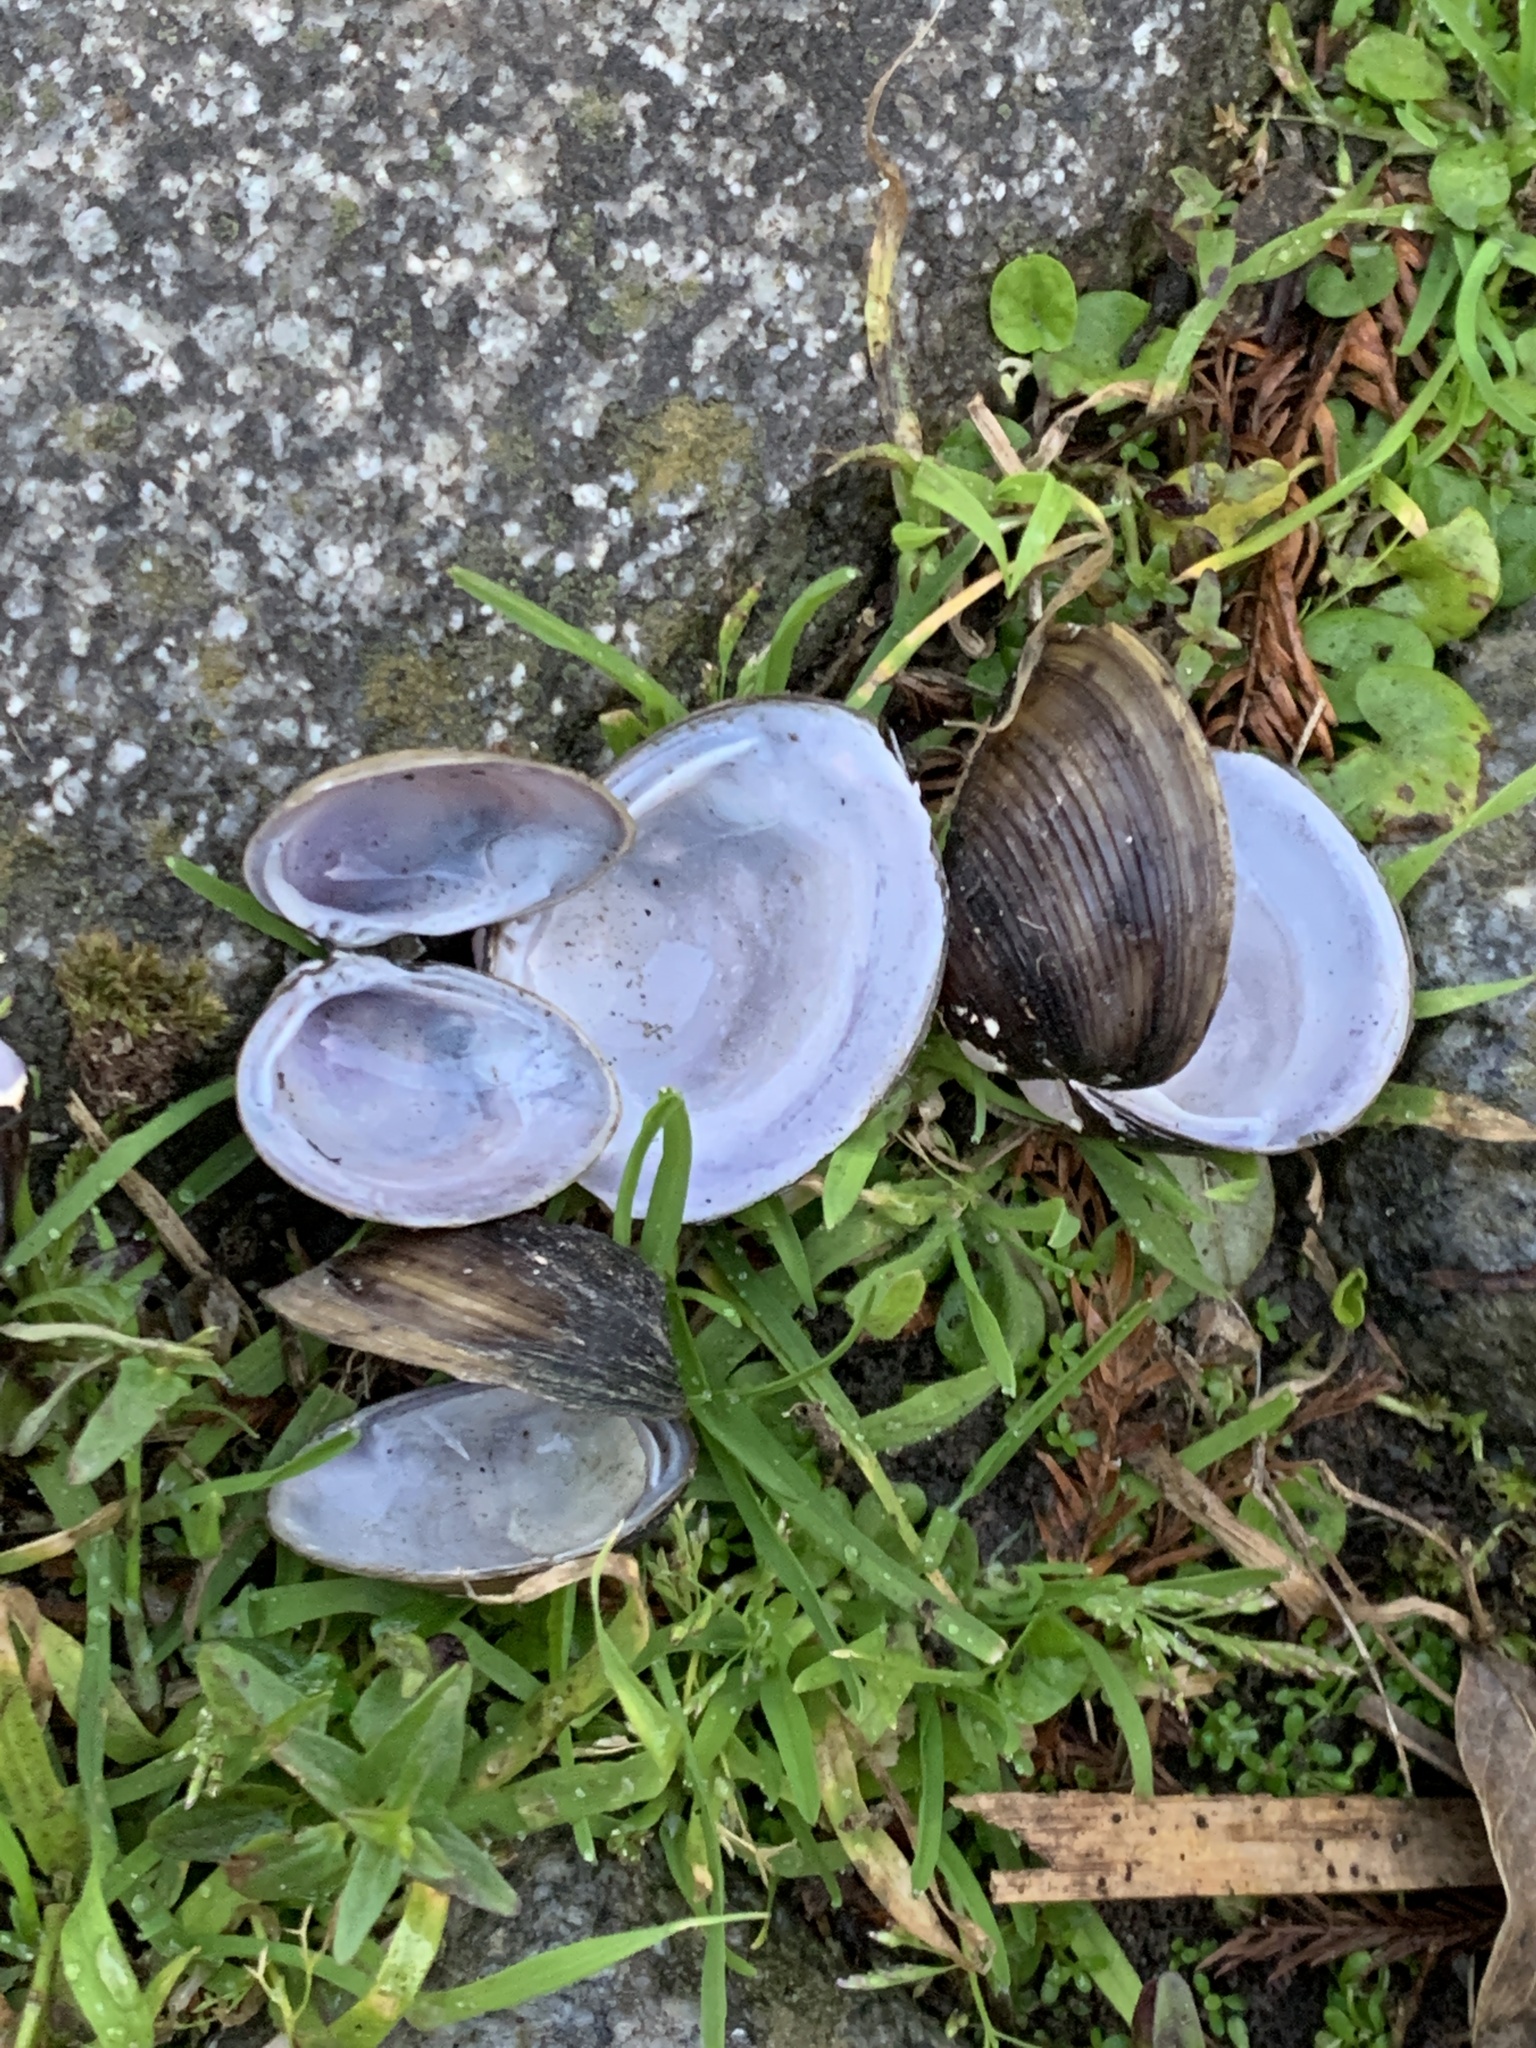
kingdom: Animalia
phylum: Mollusca
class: Bivalvia
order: Venerida
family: Cyrenidae
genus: Corbicula
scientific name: Corbicula fluminea
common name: Asian clam
